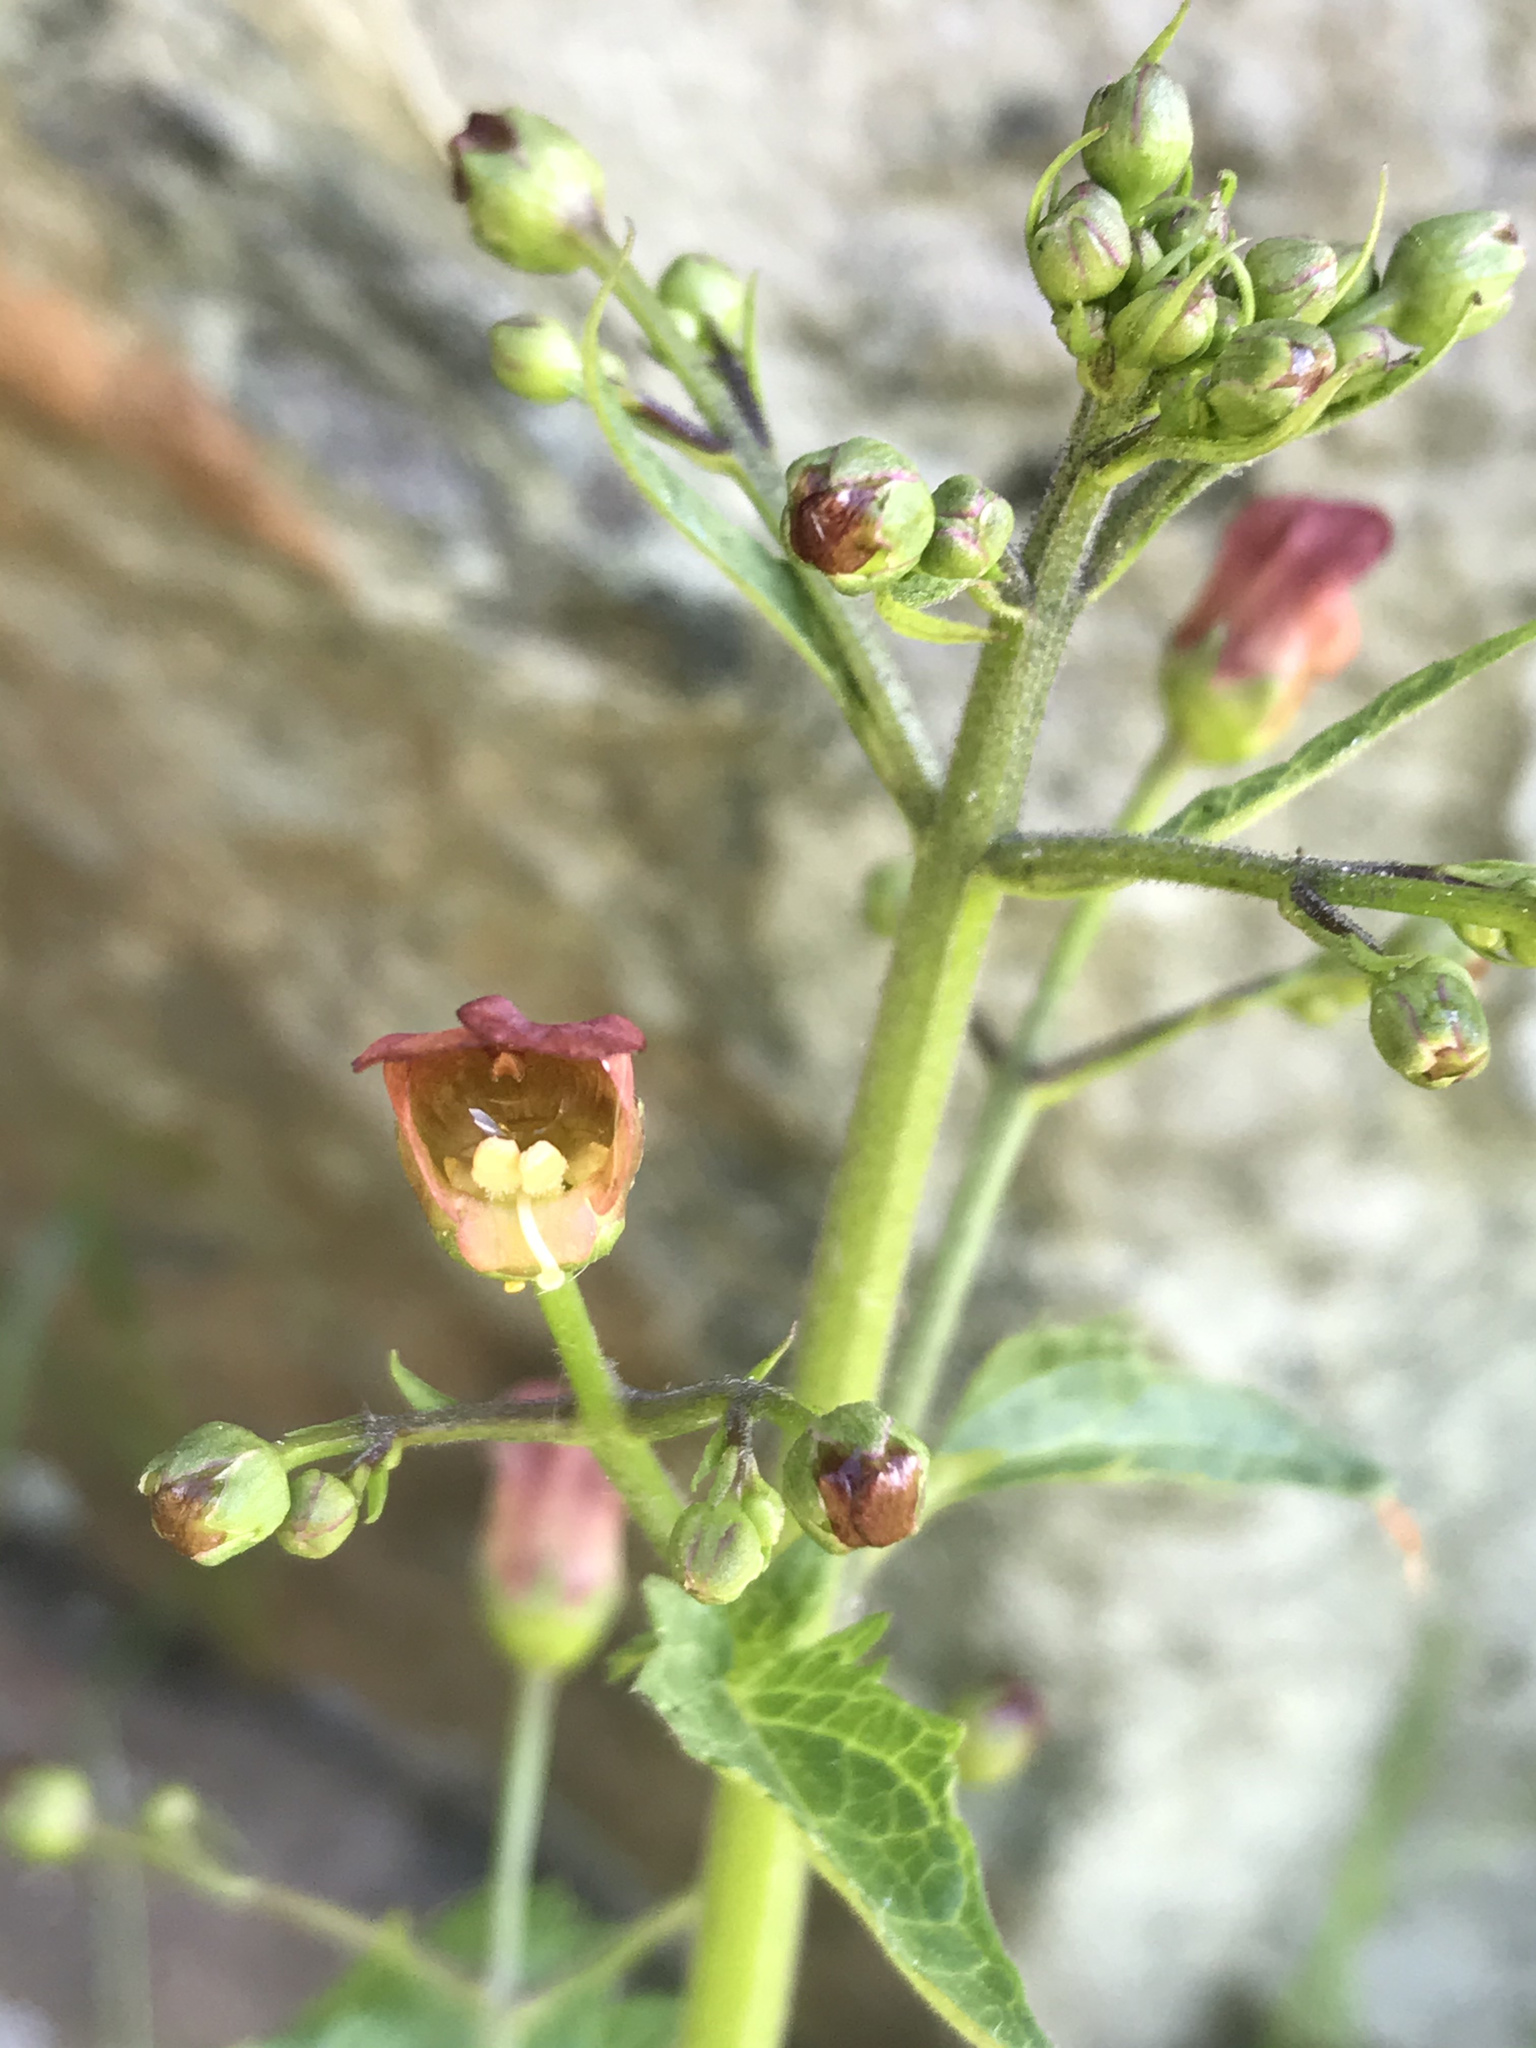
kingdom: Plantae
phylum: Tracheophyta
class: Magnoliopsida
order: Lamiales
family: Scrophulariaceae
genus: Scrophularia
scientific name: Scrophularia californica
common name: California figwort
